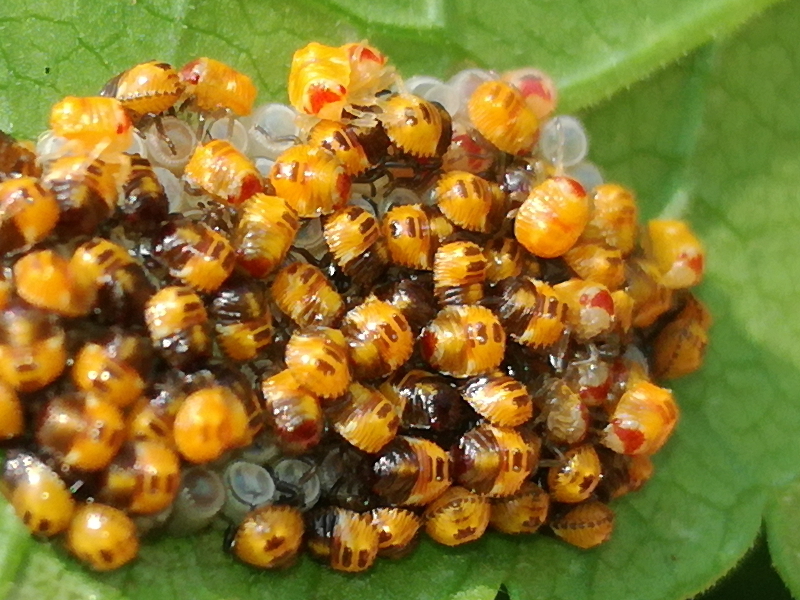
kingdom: Animalia
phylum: Arthropoda
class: Insecta
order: Hemiptera
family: Pentatomidae
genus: Nezara
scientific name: Nezara viridula
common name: Southern green stink bug
